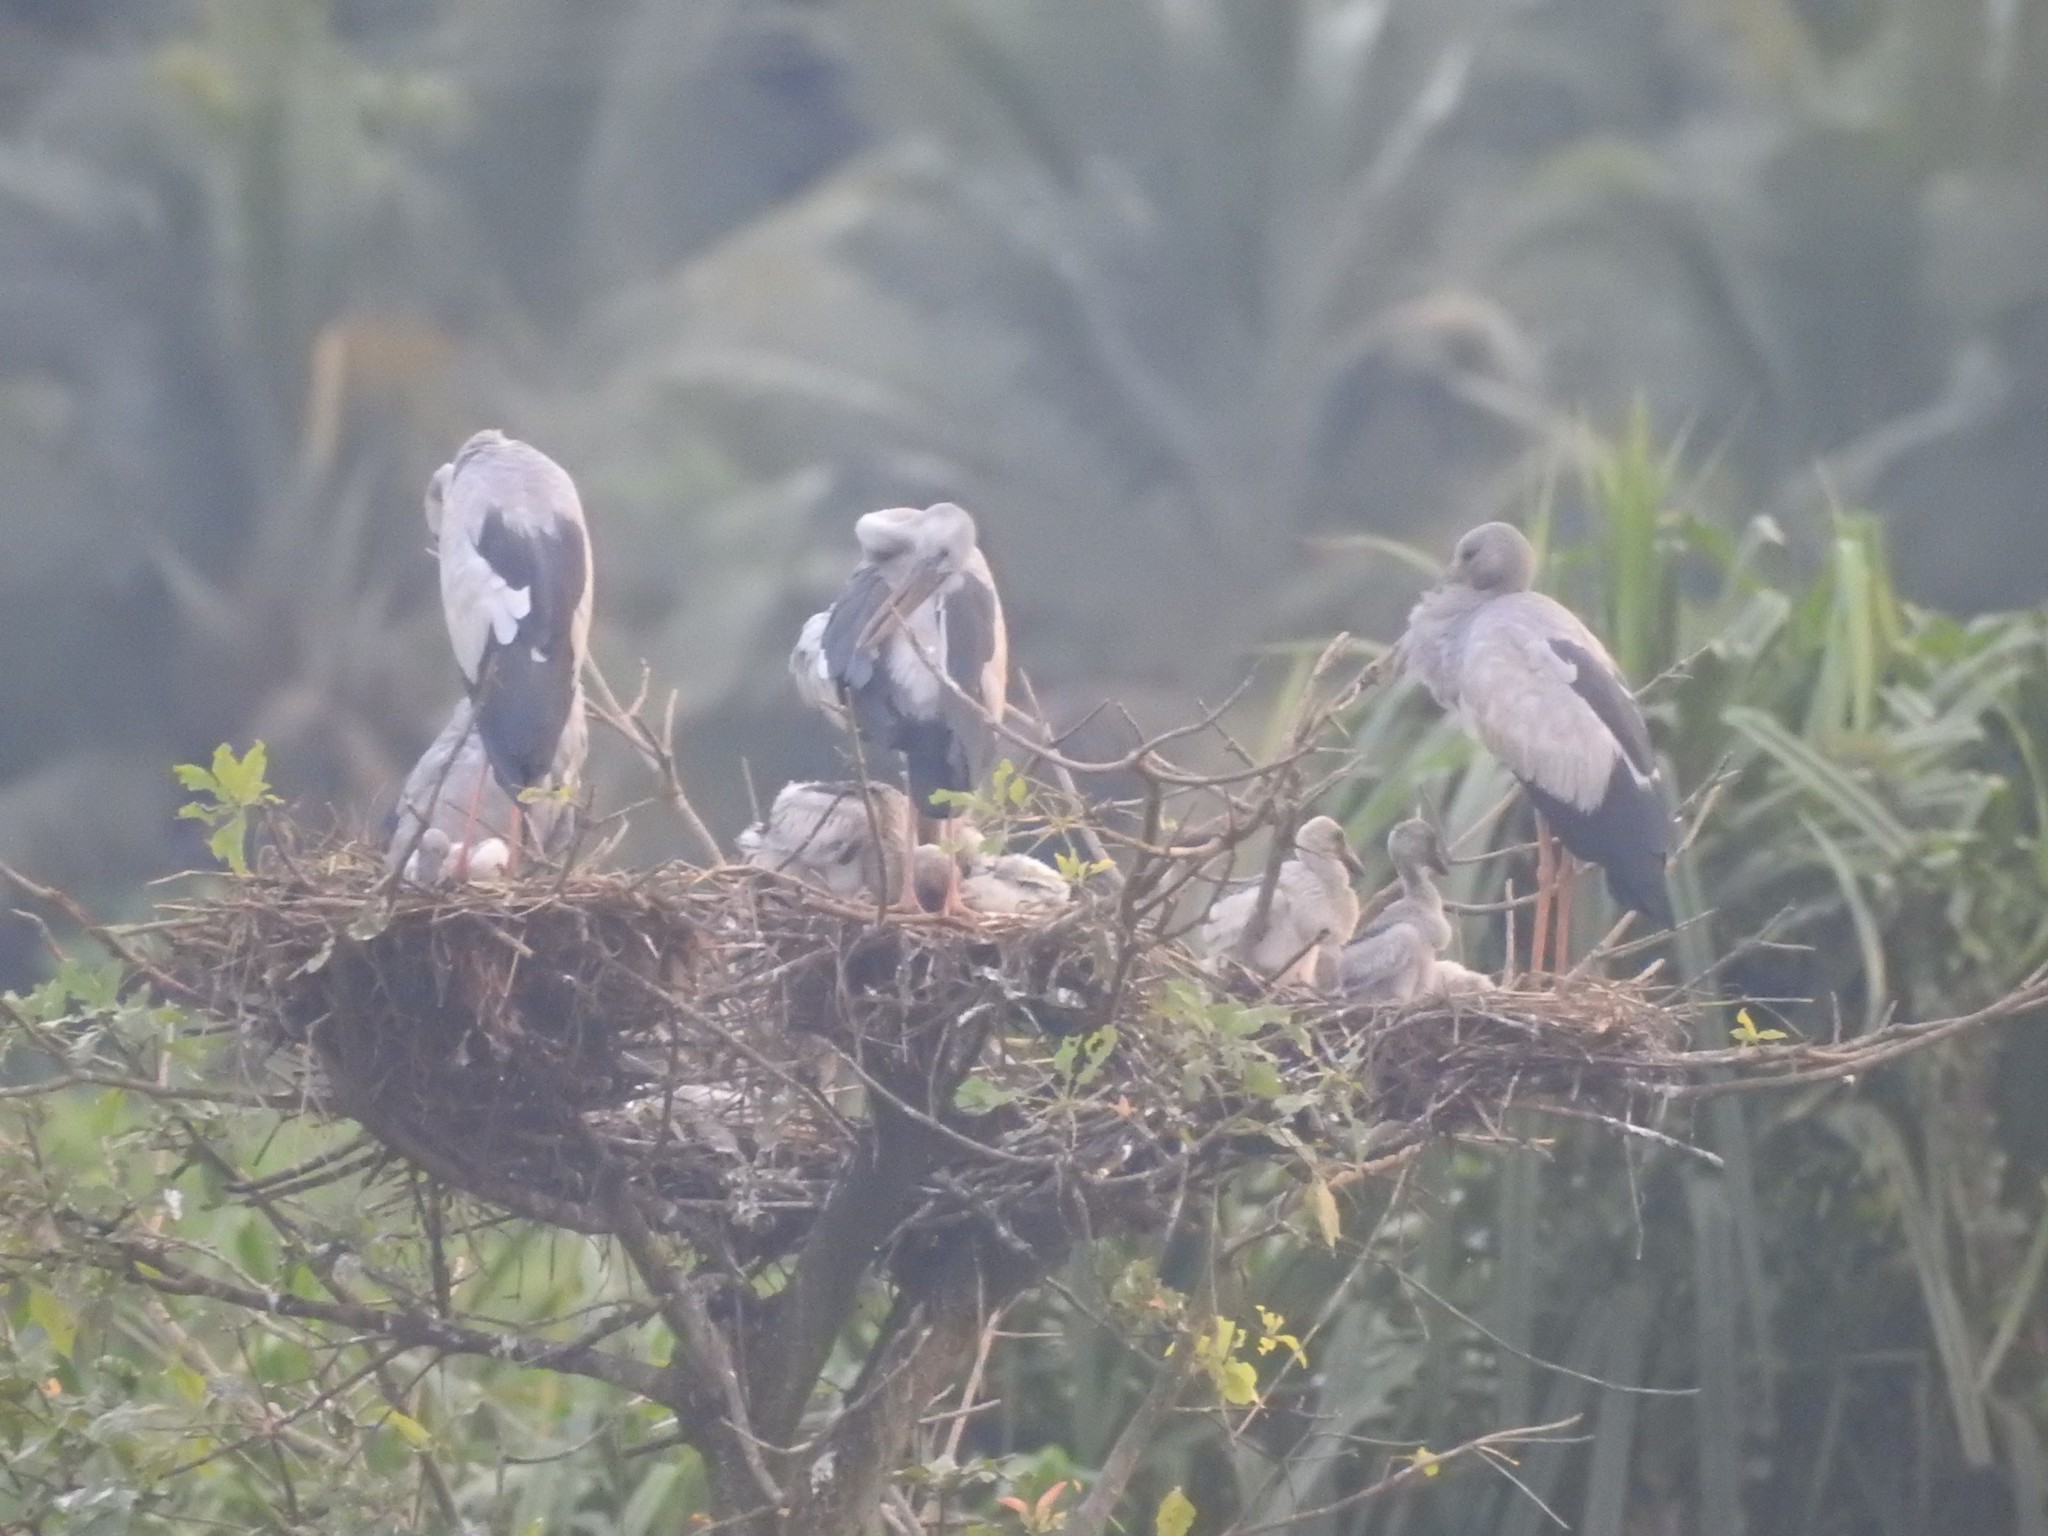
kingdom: Animalia
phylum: Chordata
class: Aves
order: Ciconiiformes
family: Ciconiidae
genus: Anastomus
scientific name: Anastomus oscitans
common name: Asian openbill
